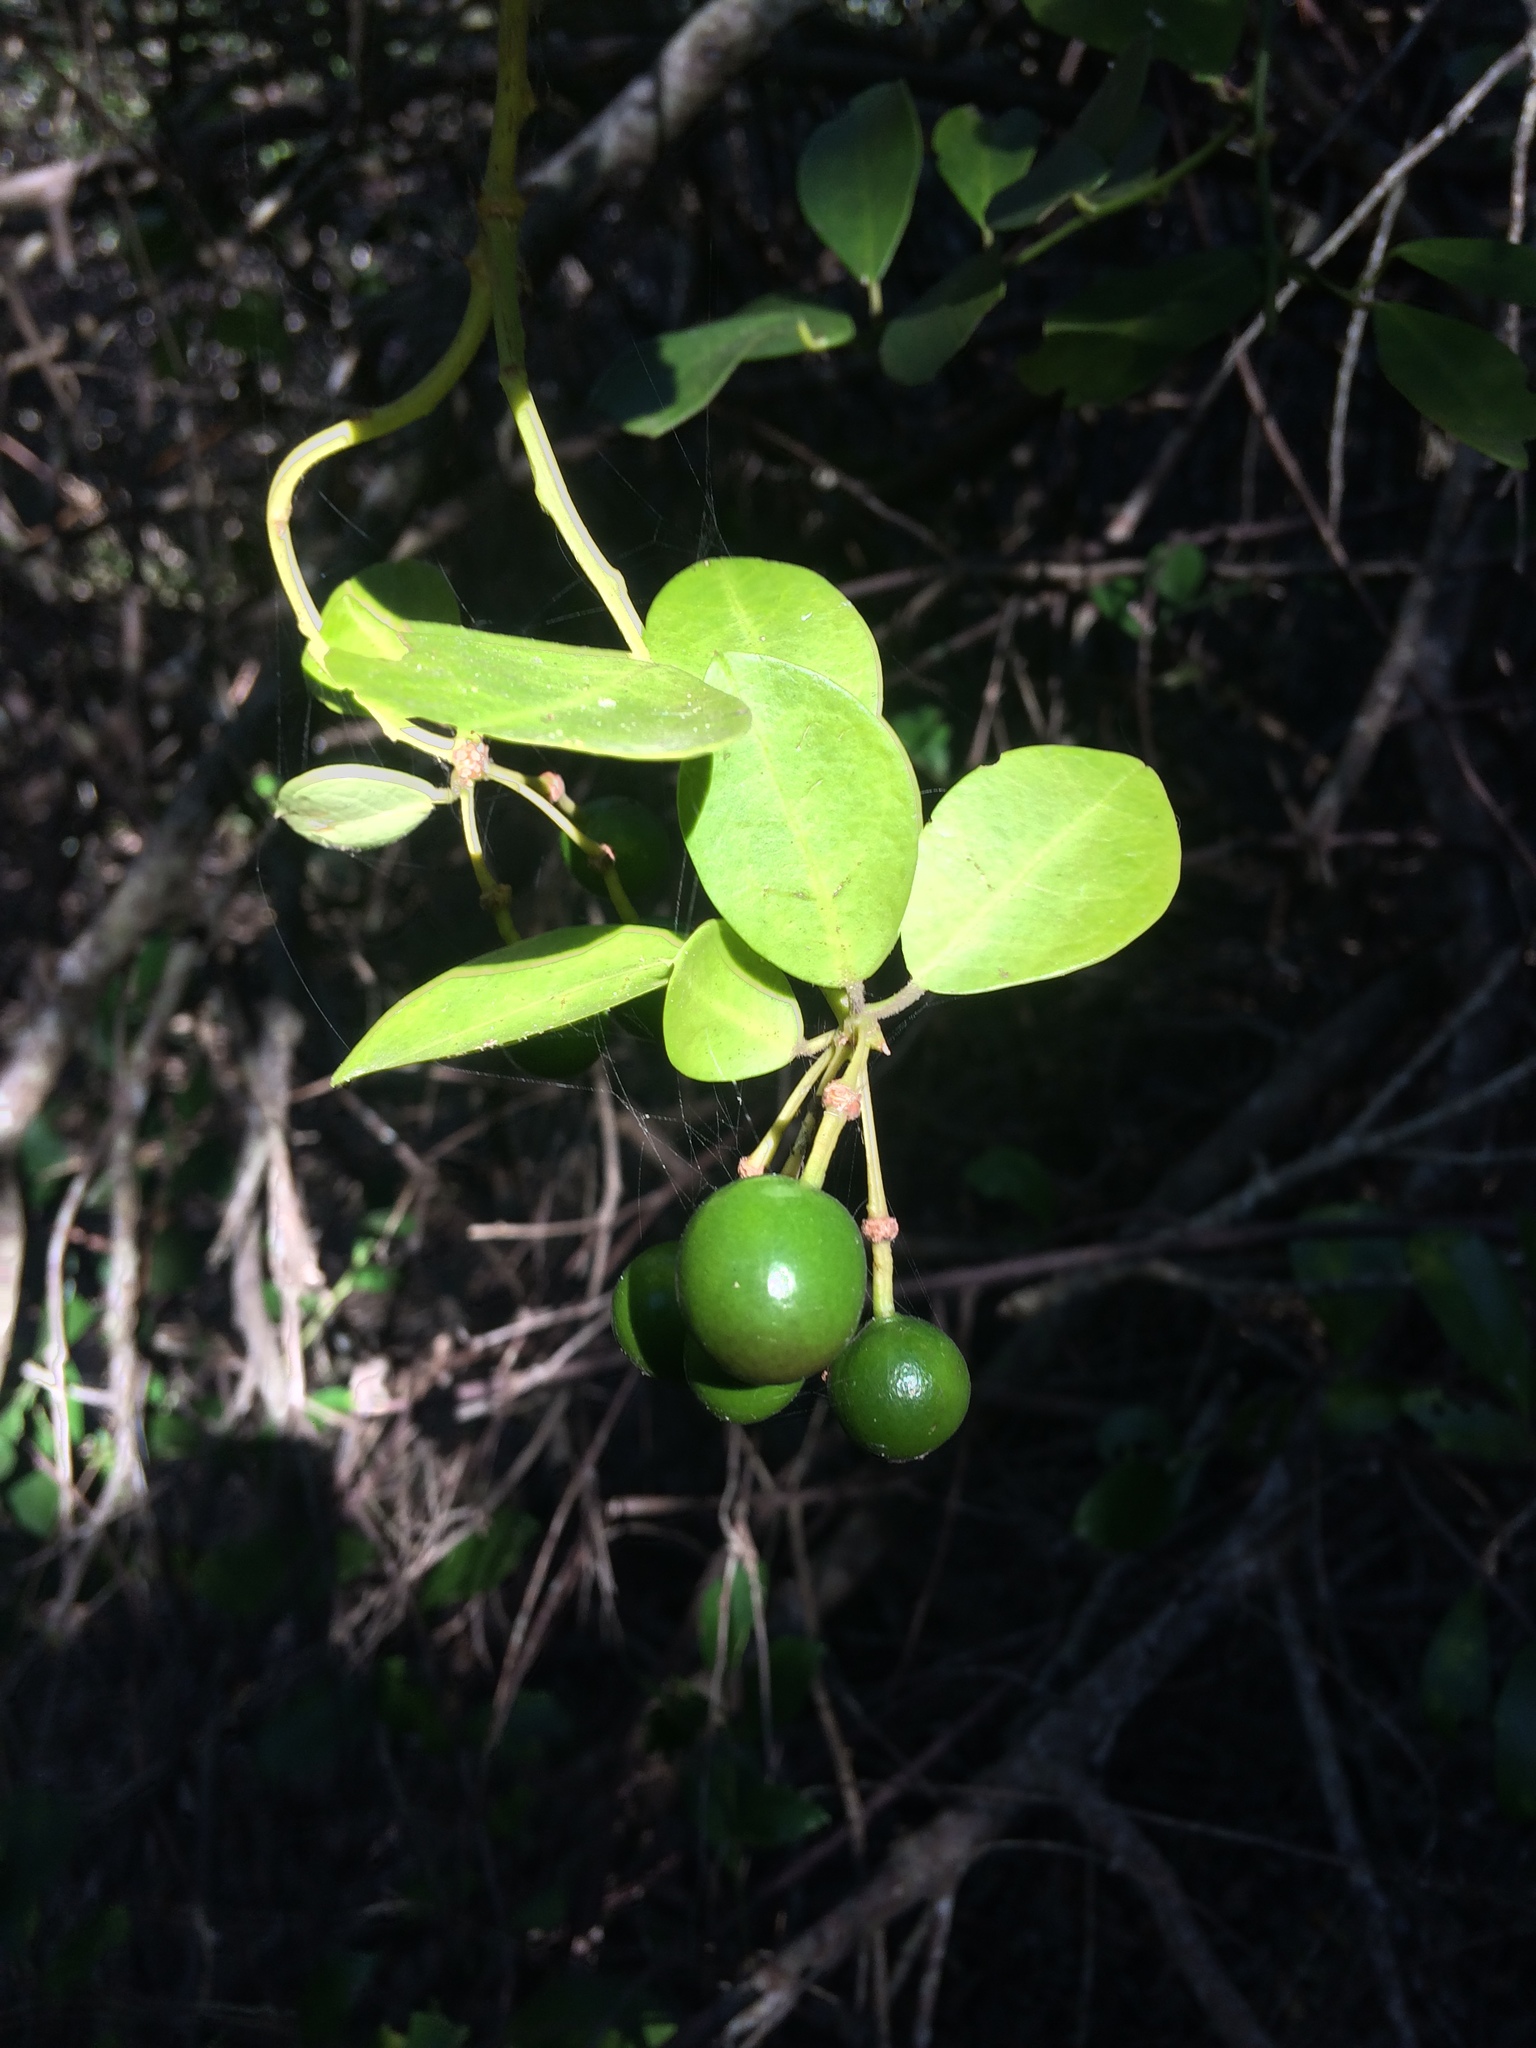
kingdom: Plantae
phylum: Tracheophyta
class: Magnoliopsida
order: Brassicales
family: Capparaceae
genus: Capparis
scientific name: Capparis sepiaria
